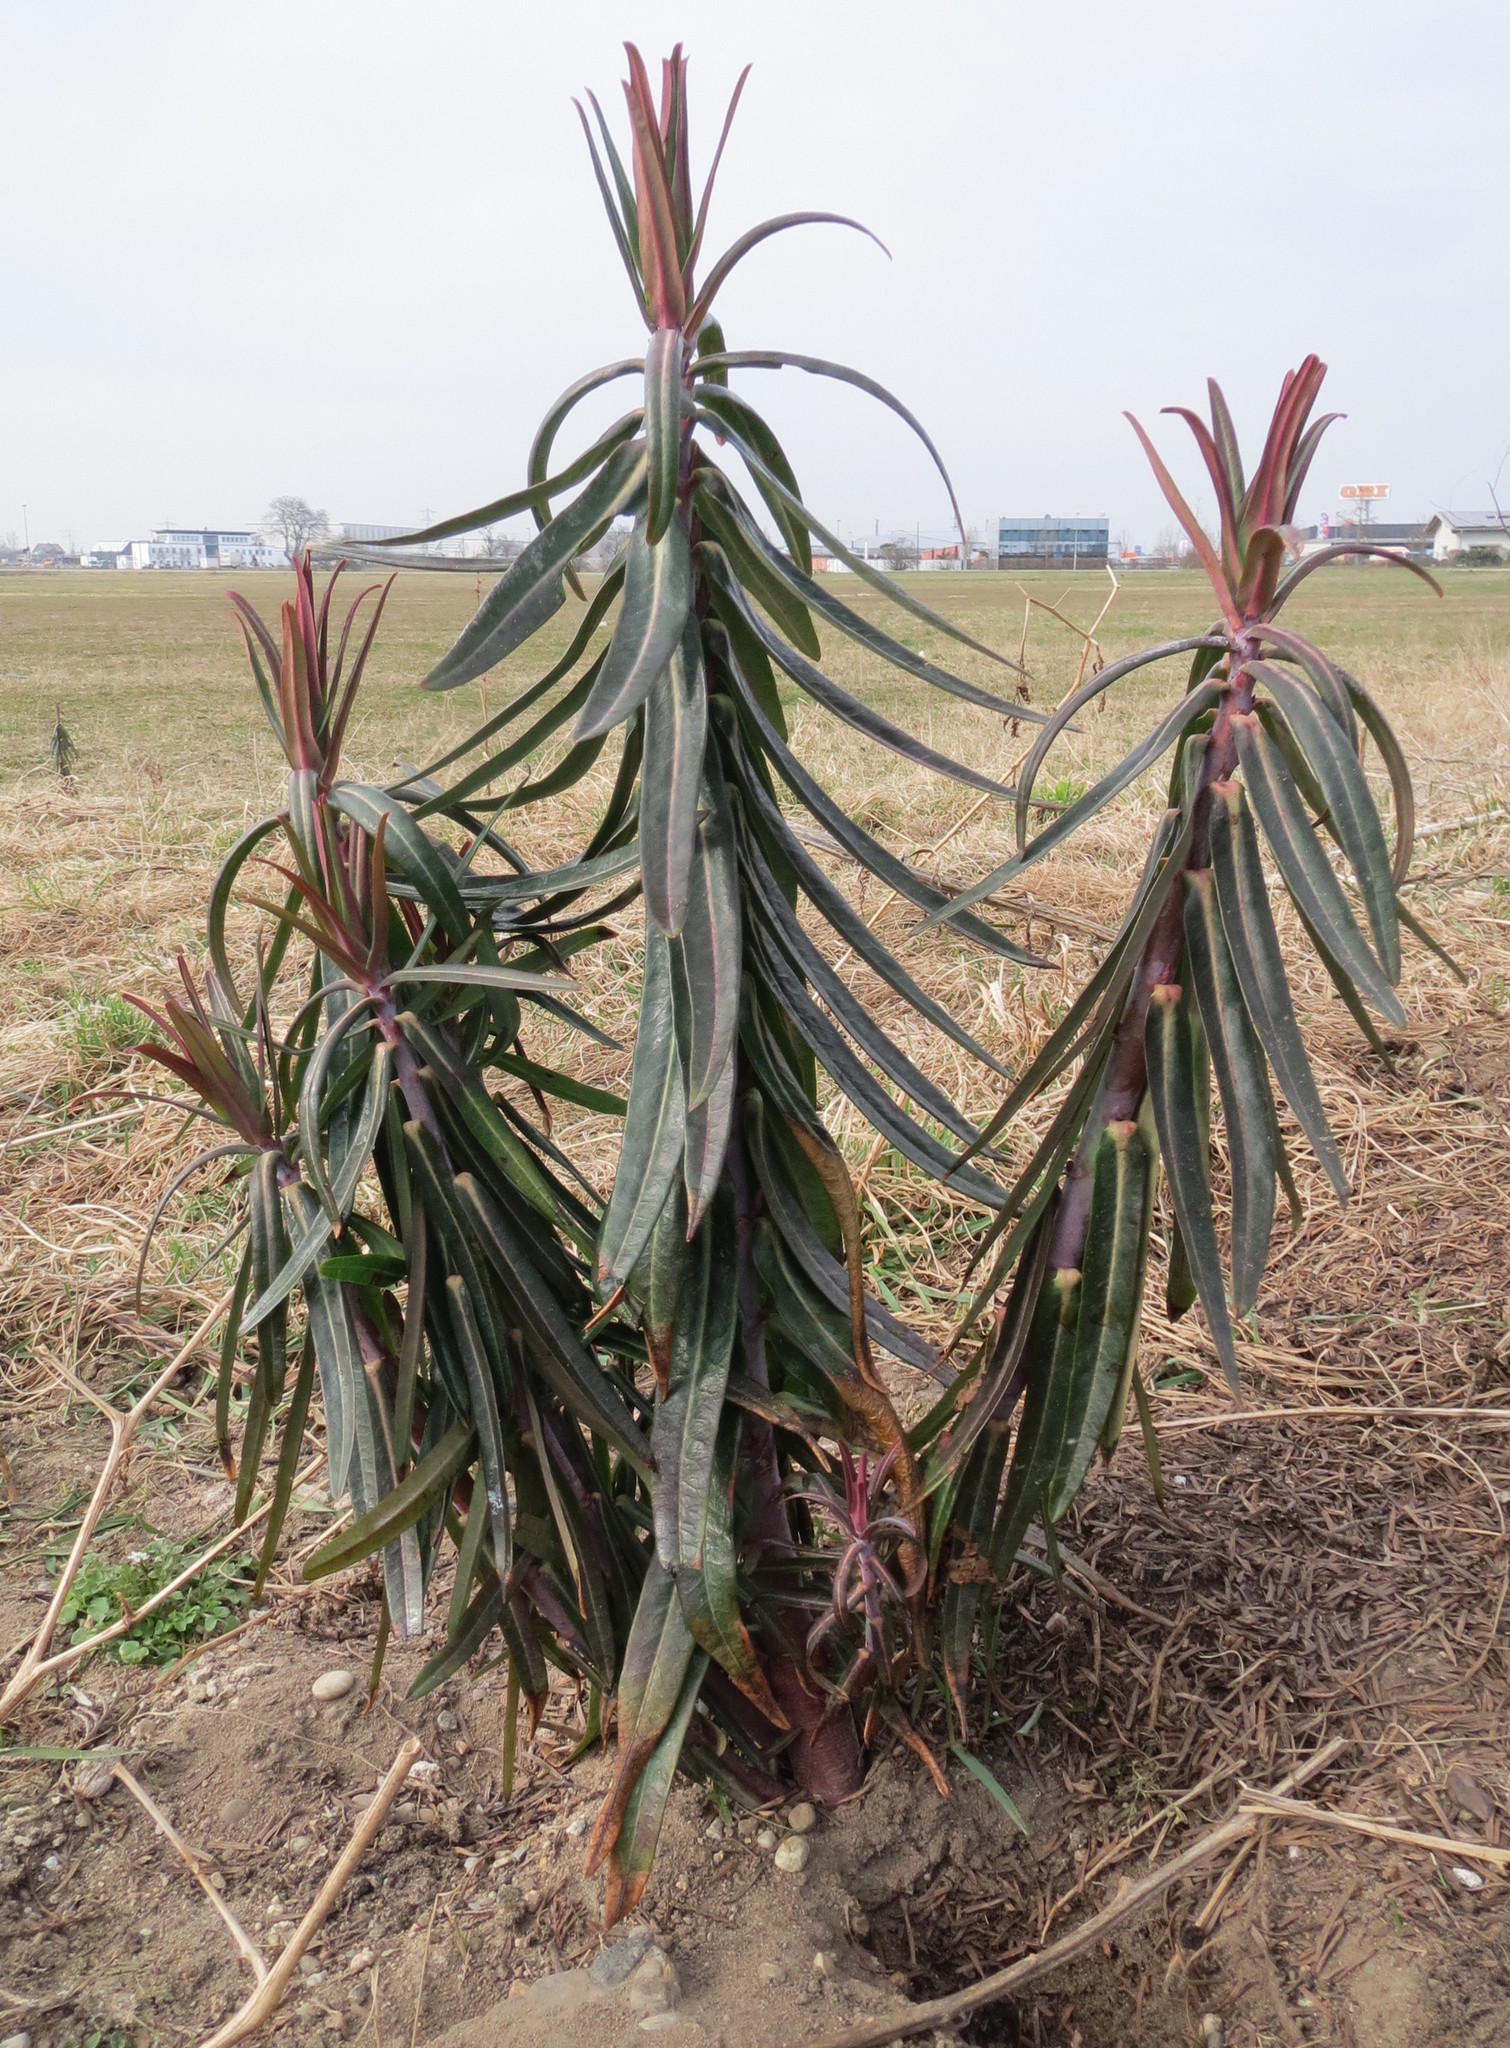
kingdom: Plantae
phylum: Tracheophyta
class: Magnoliopsida
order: Malpighiales
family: Euphorbiaceae
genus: Euphorbia
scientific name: Euphorbia lathyris
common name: Caper spurge
